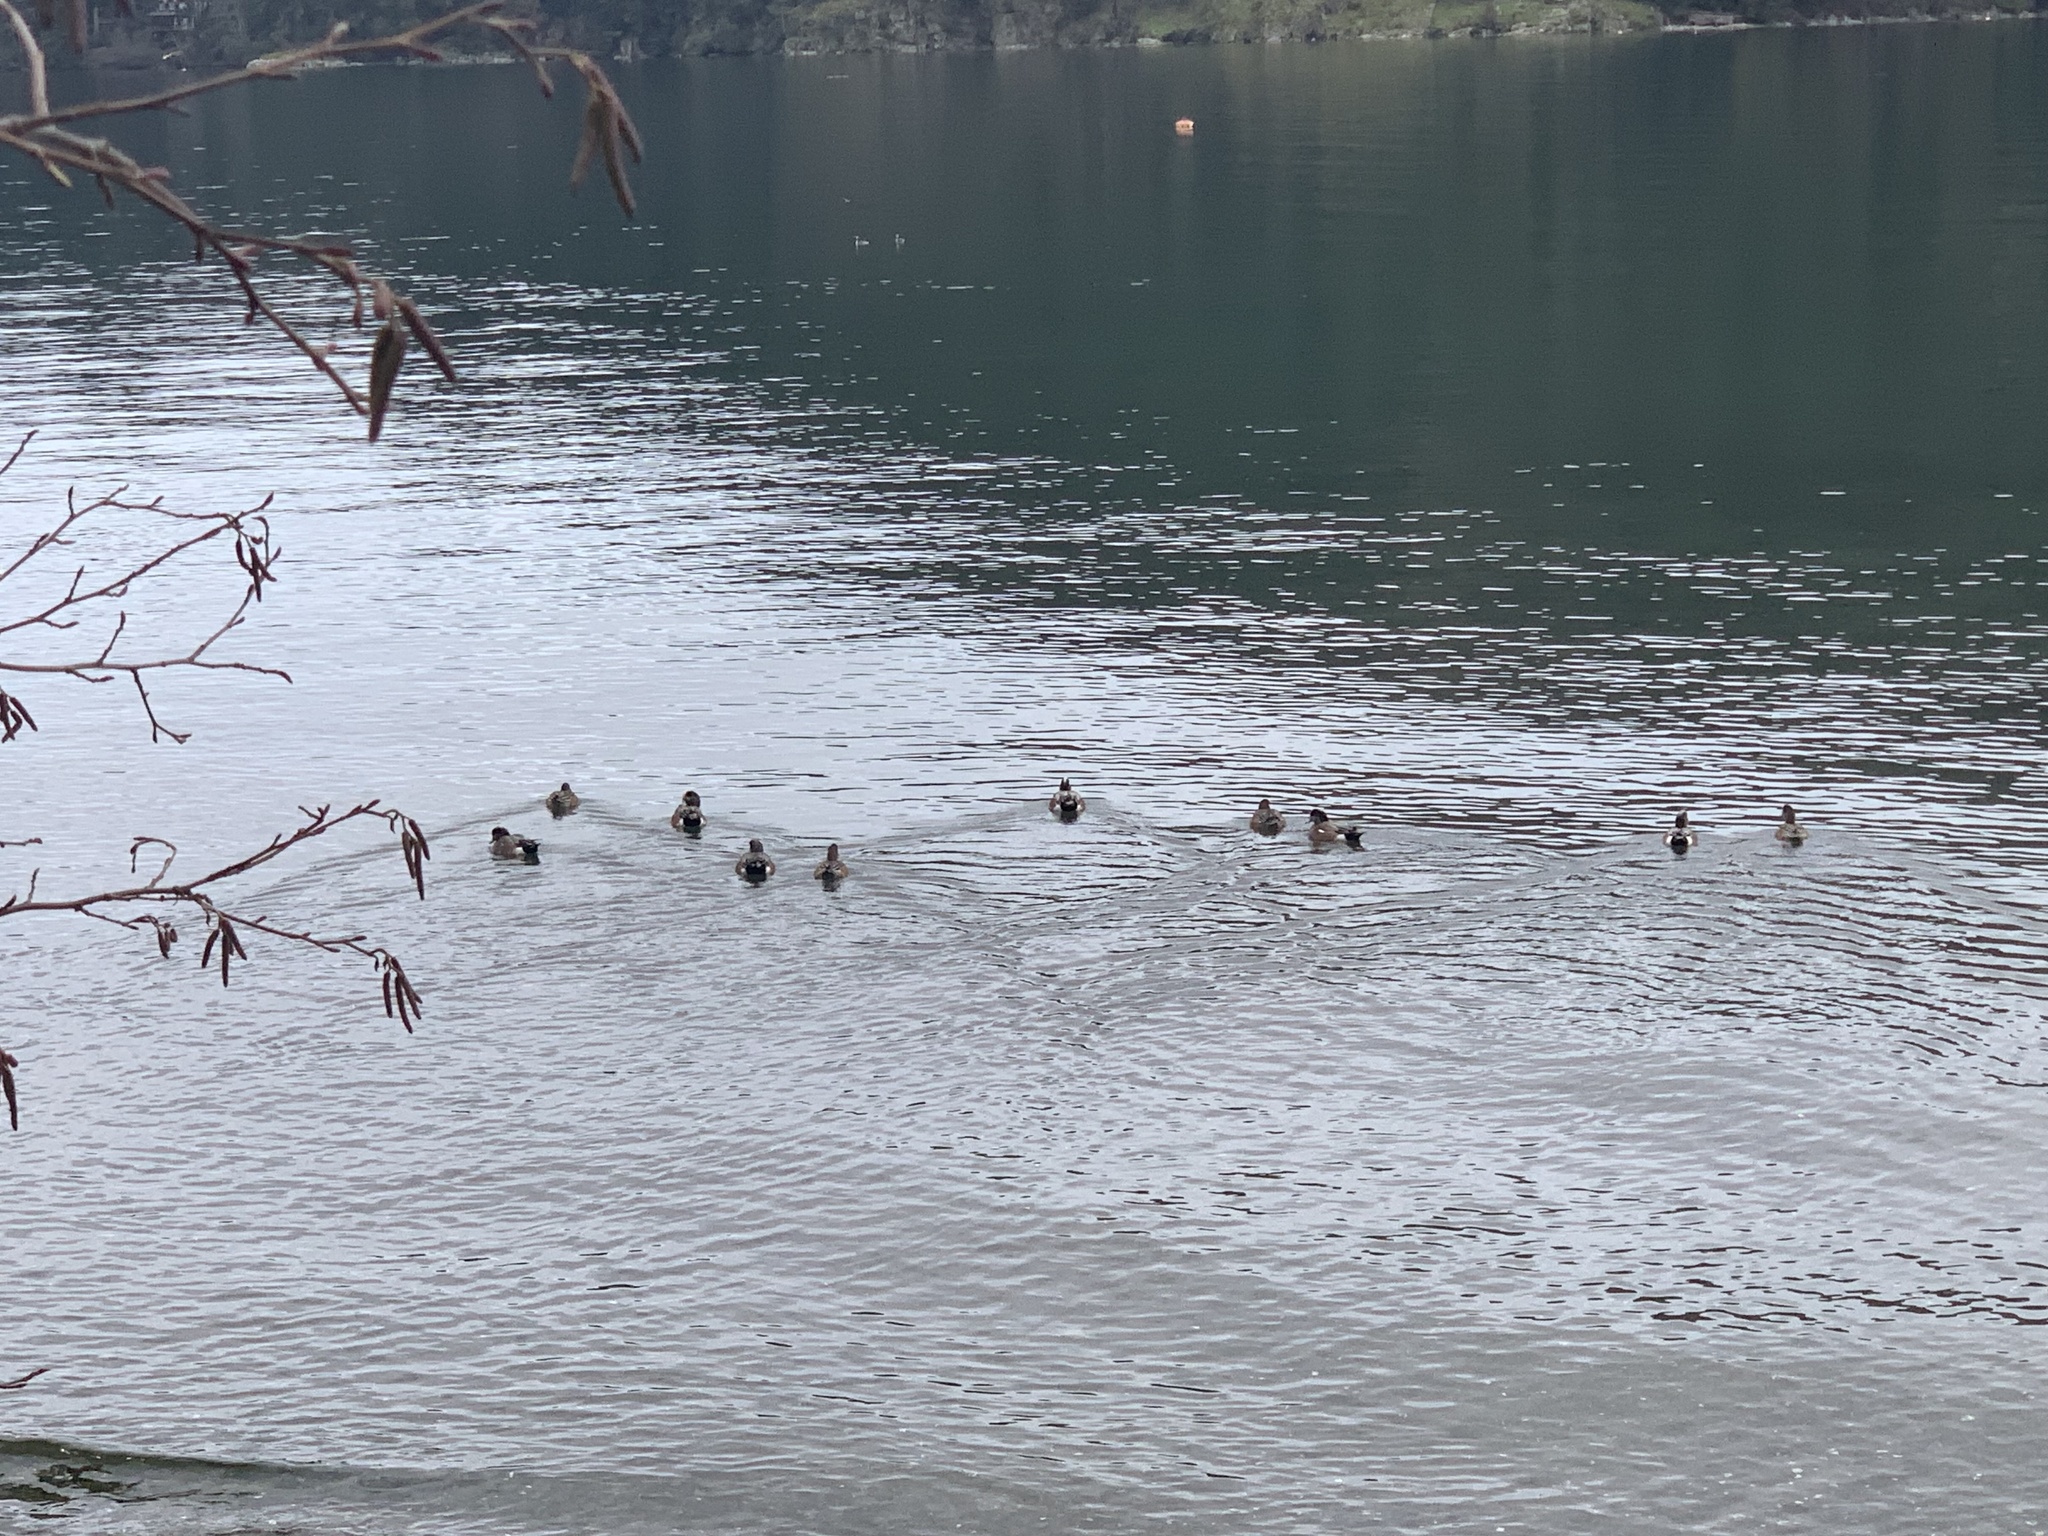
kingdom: Animalia
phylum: Chordata
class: Aves
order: Anseriformes
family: Anatidae
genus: Mareca
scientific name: Mareca americana
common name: American wigeon
